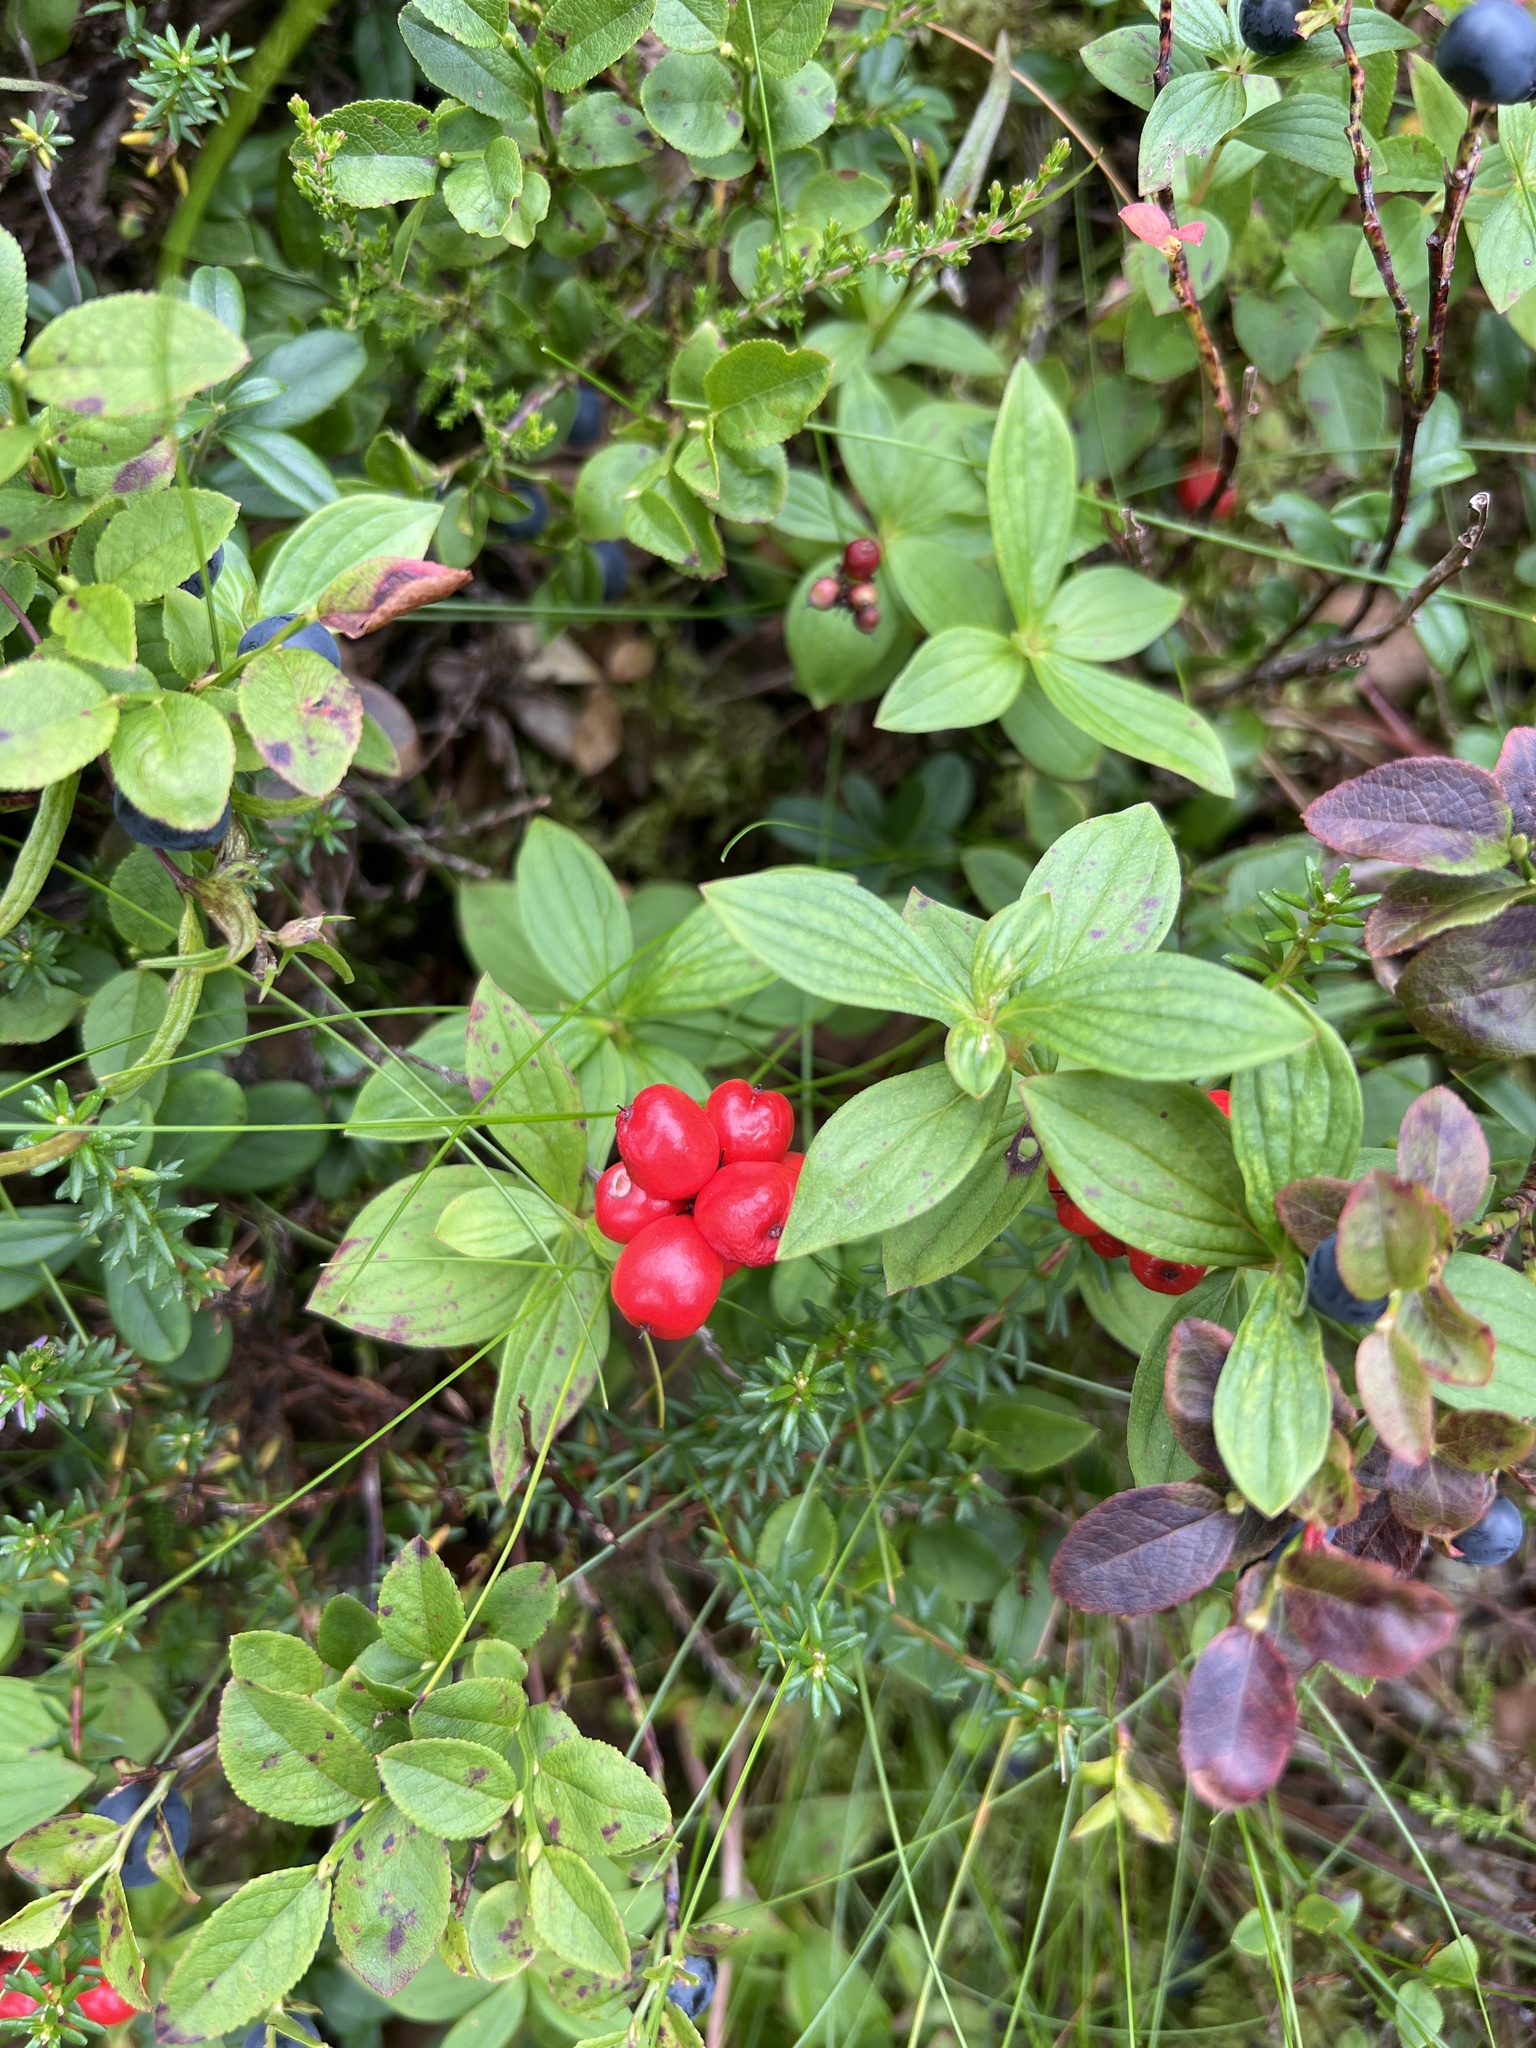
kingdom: Plantae
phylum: Tracheophyta
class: Magnoliopsida
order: Cornales
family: Cornaceae
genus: Cornus
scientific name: Cornus suecica
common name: Dwarf cornel
